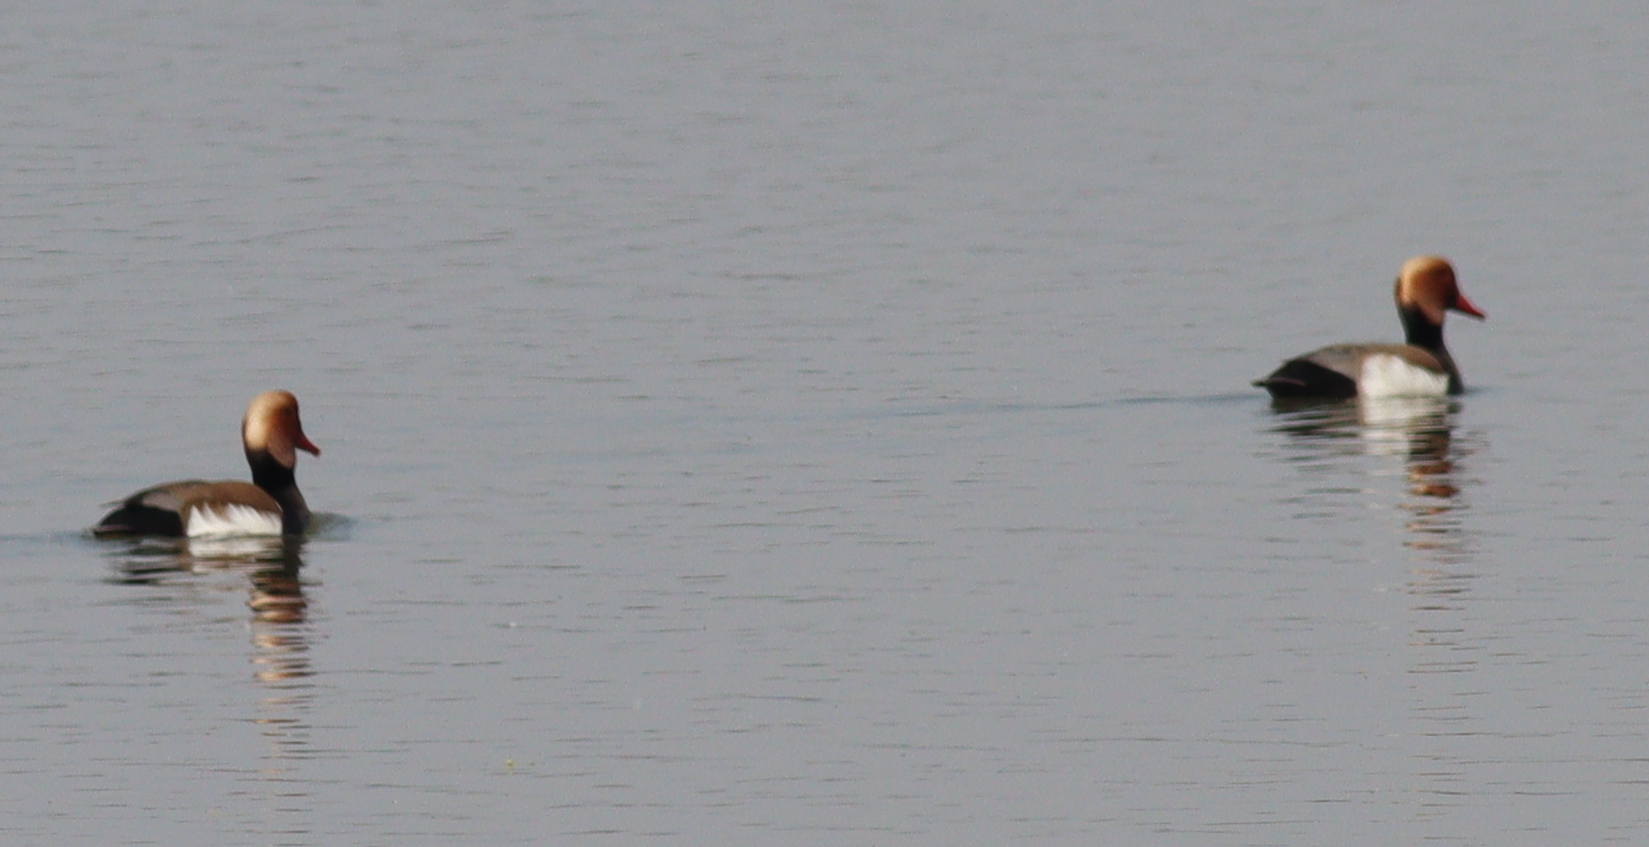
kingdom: Animalia
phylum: Chordata
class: Aves
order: Anseriformes
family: Anatidae
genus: Netta
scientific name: Netta rufina
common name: Red-crested pochard
